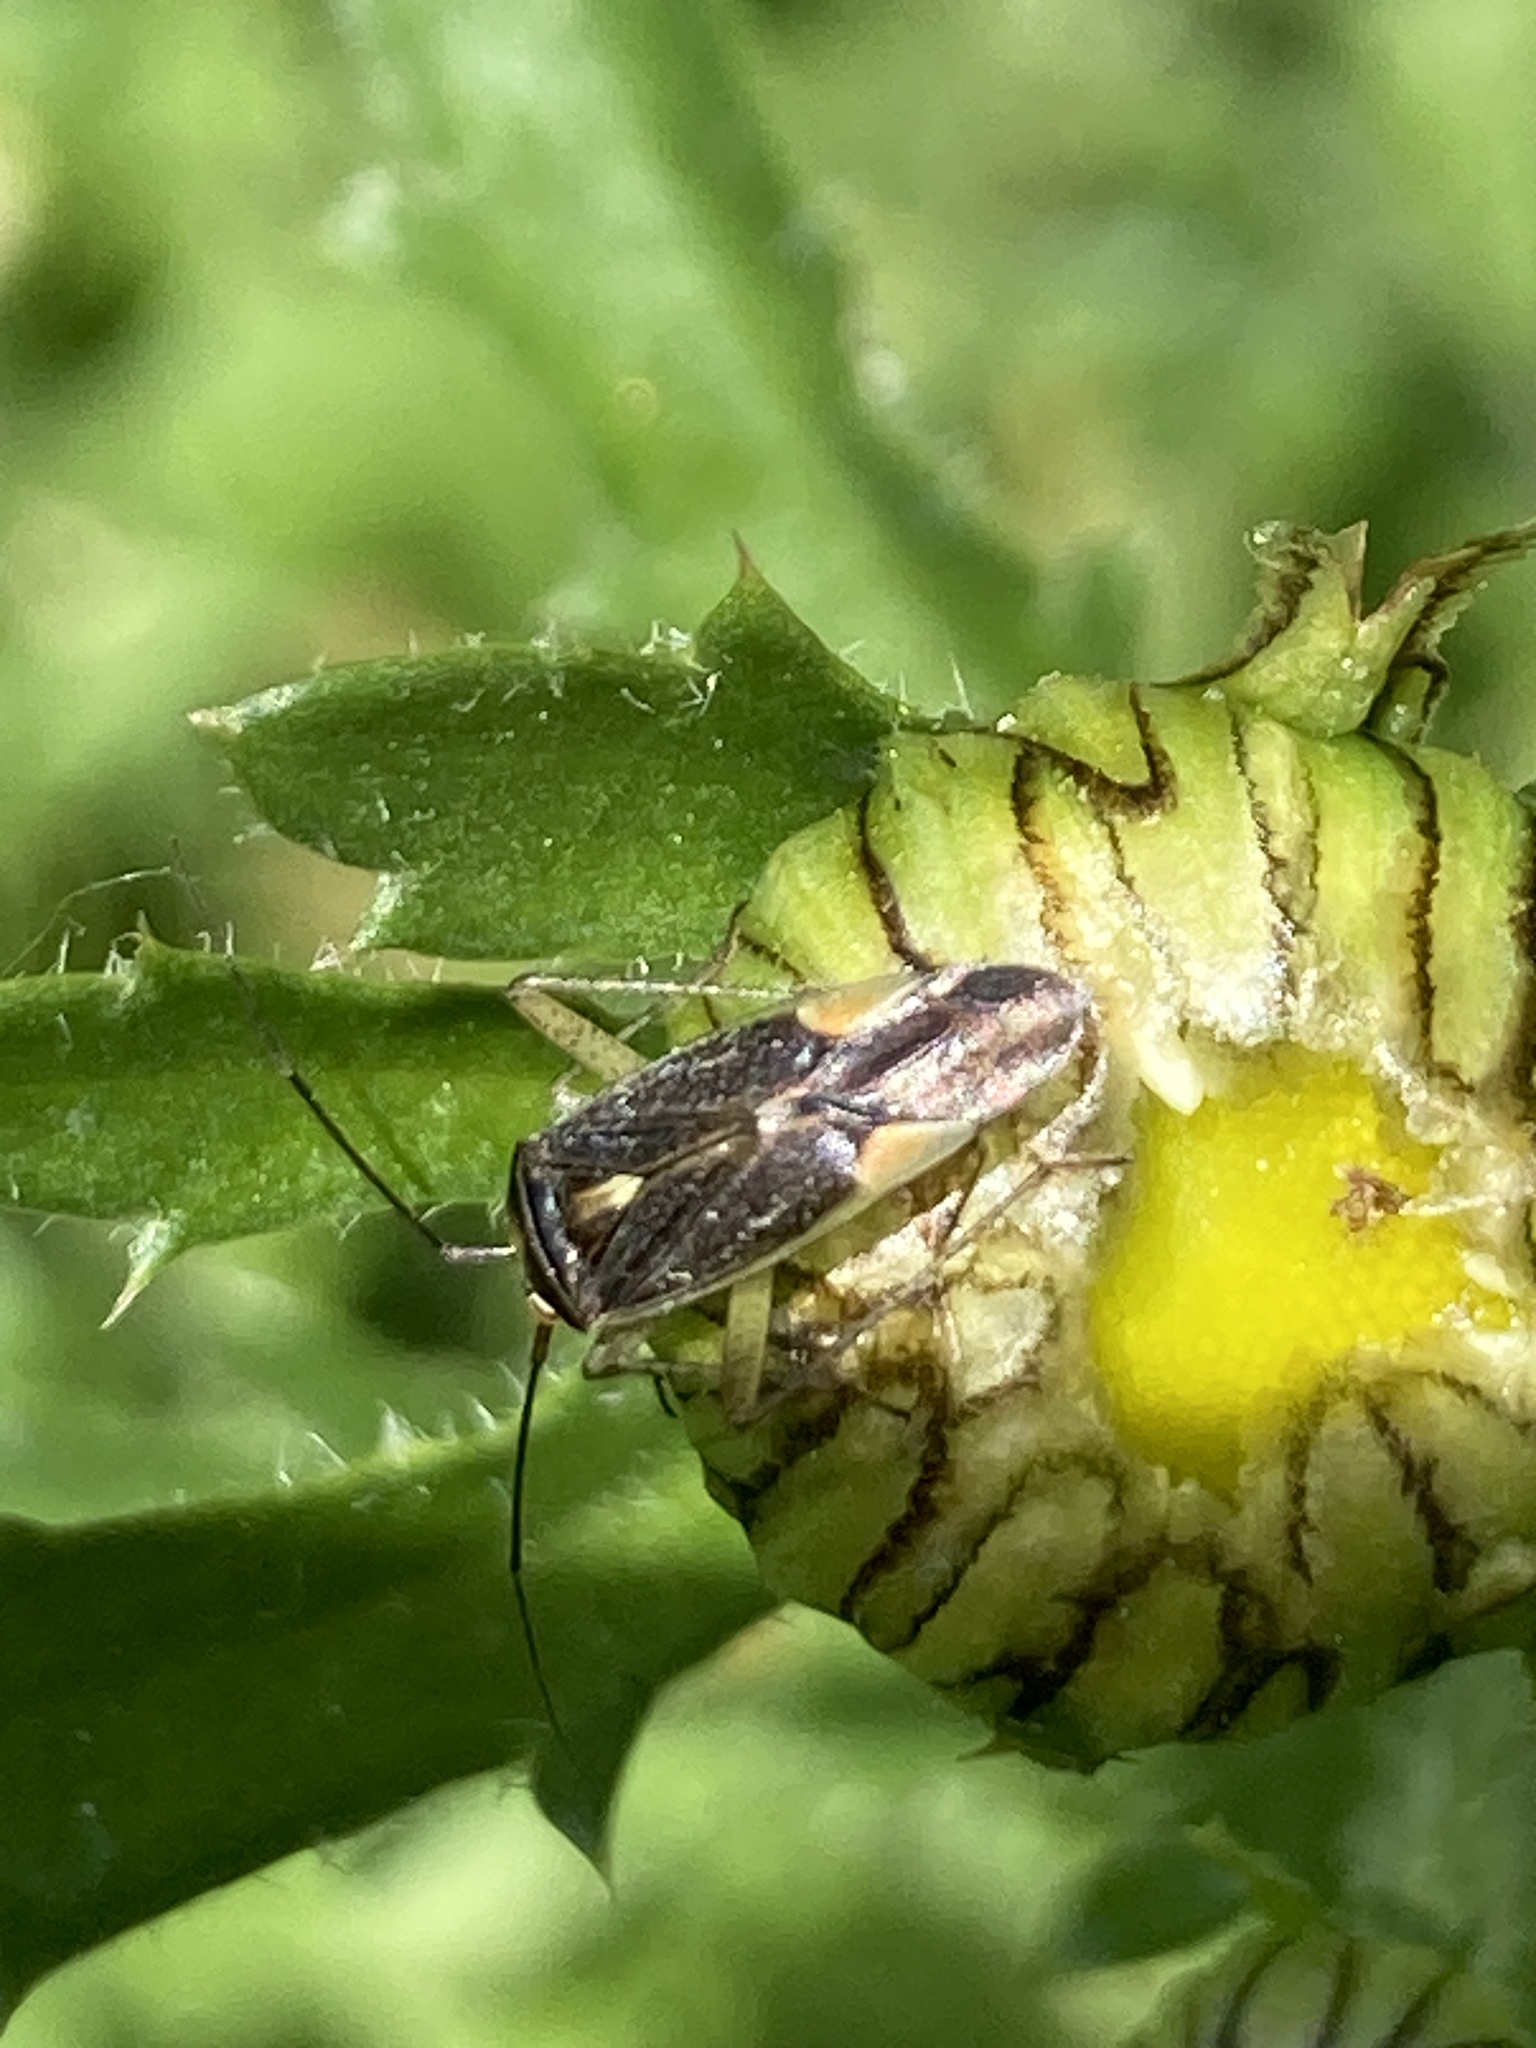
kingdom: Animalia
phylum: Arthropoda
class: Insecta
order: Hemiptera
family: Miridae
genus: Closterotomus
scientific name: Closterotomus trivialis
